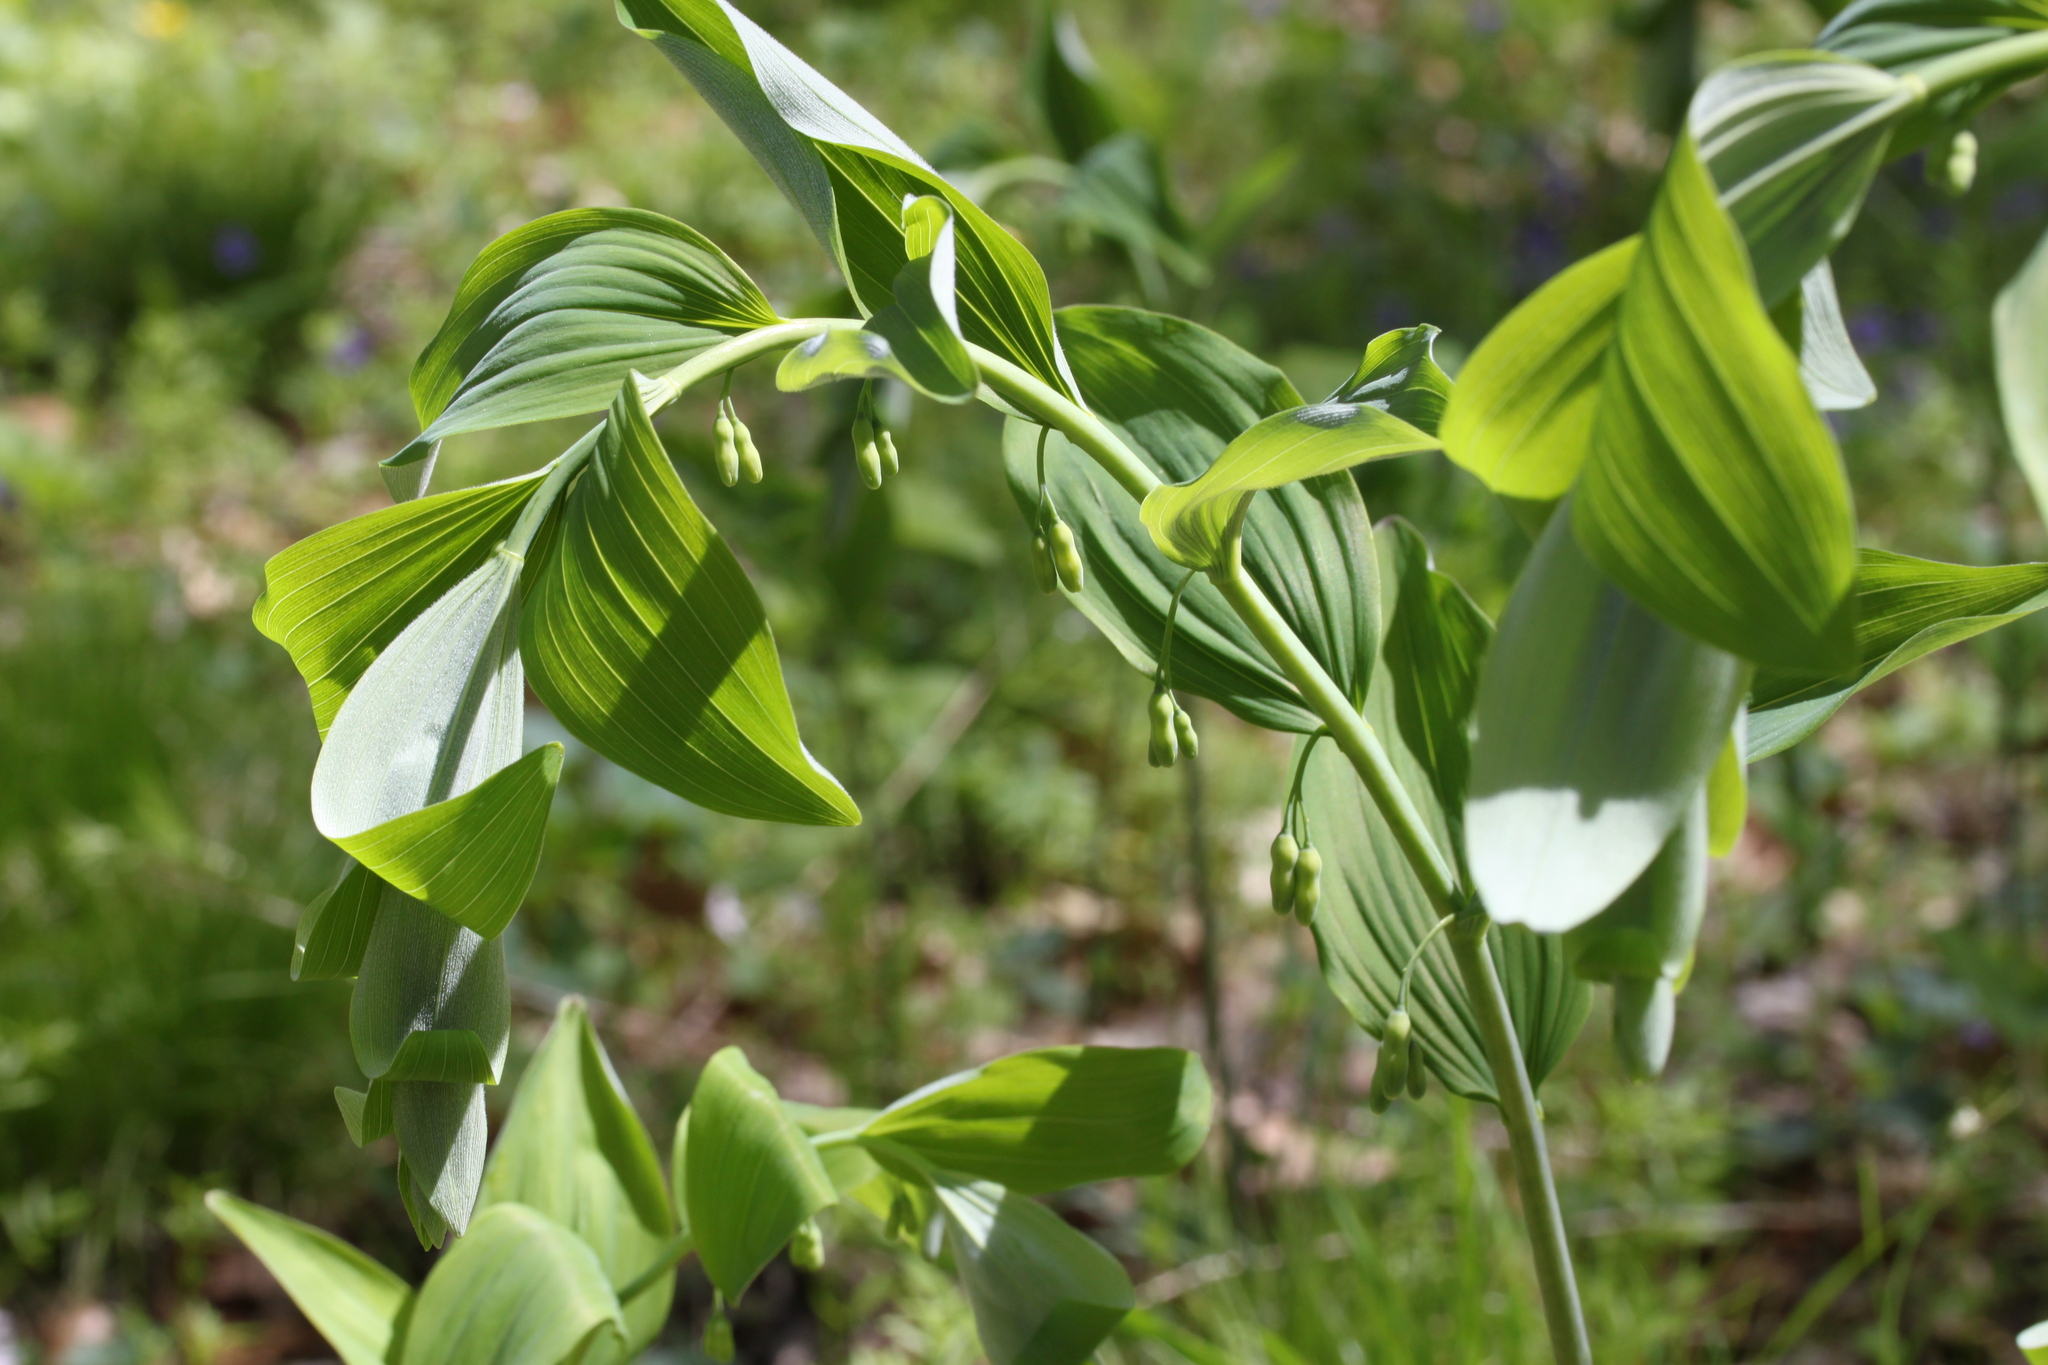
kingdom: Plantae
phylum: Tracheophyta
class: Liliopsida
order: Asparagales
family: Asparagaceae
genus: Polygonatum
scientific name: Polygonatum pubescens
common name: Downy solomon's seal
